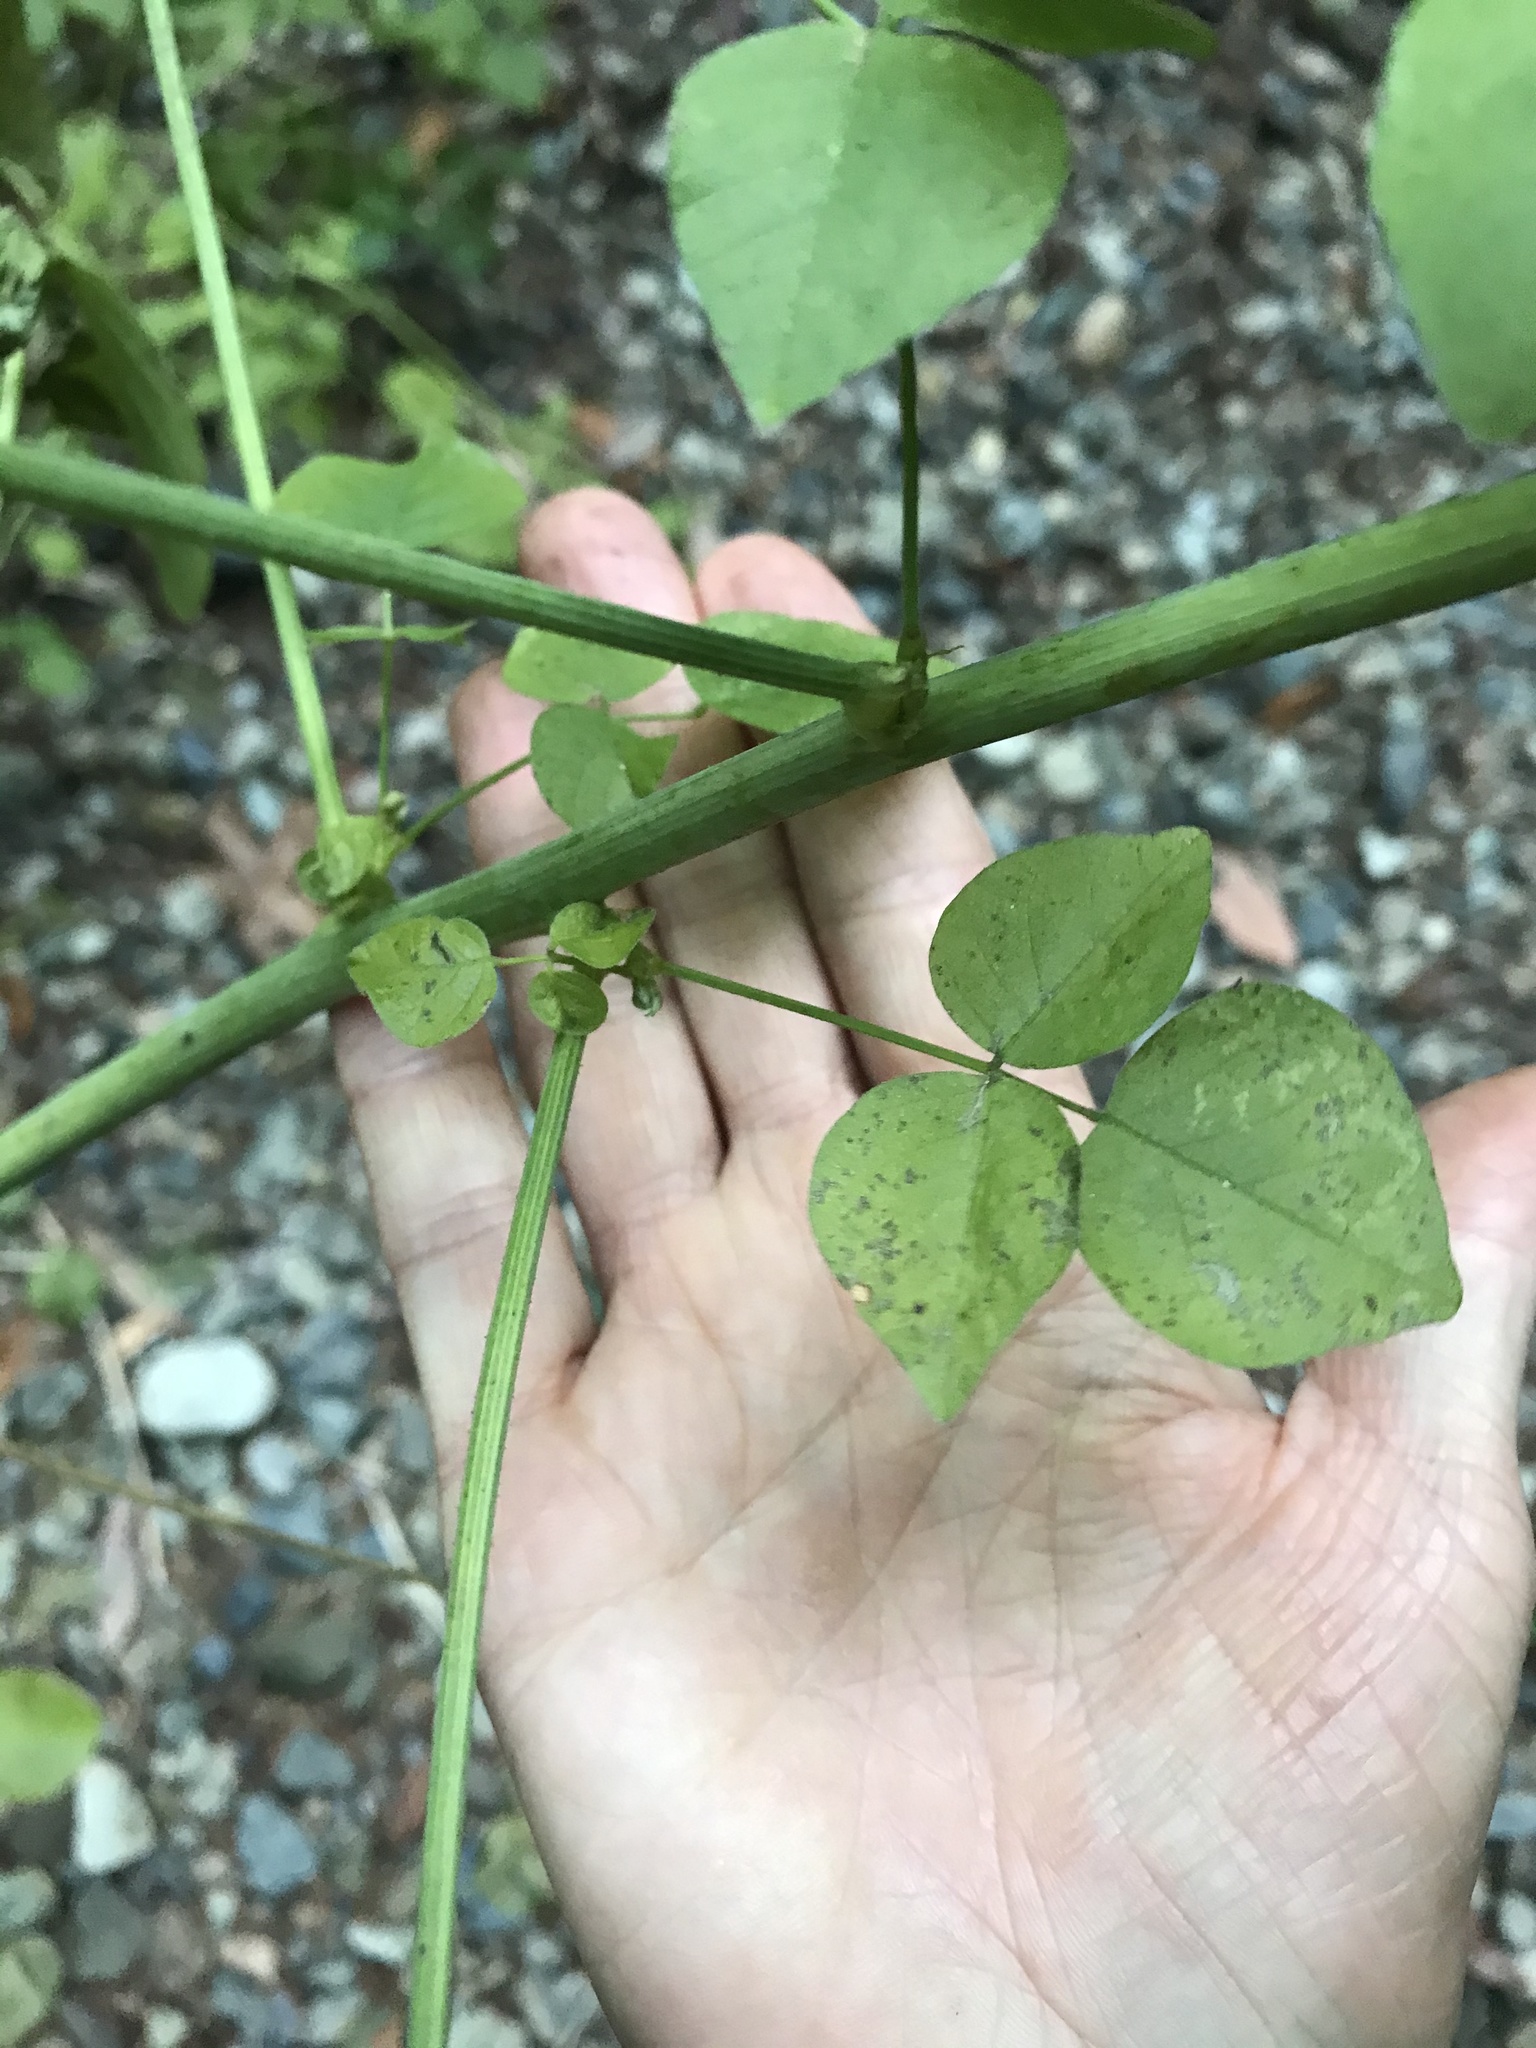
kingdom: Plantae
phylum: Tracheophyta
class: Magnoliopsida
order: Fabales
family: Fabaceae
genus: Hoita
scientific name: Hoita macrostachya
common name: Leatherroot
